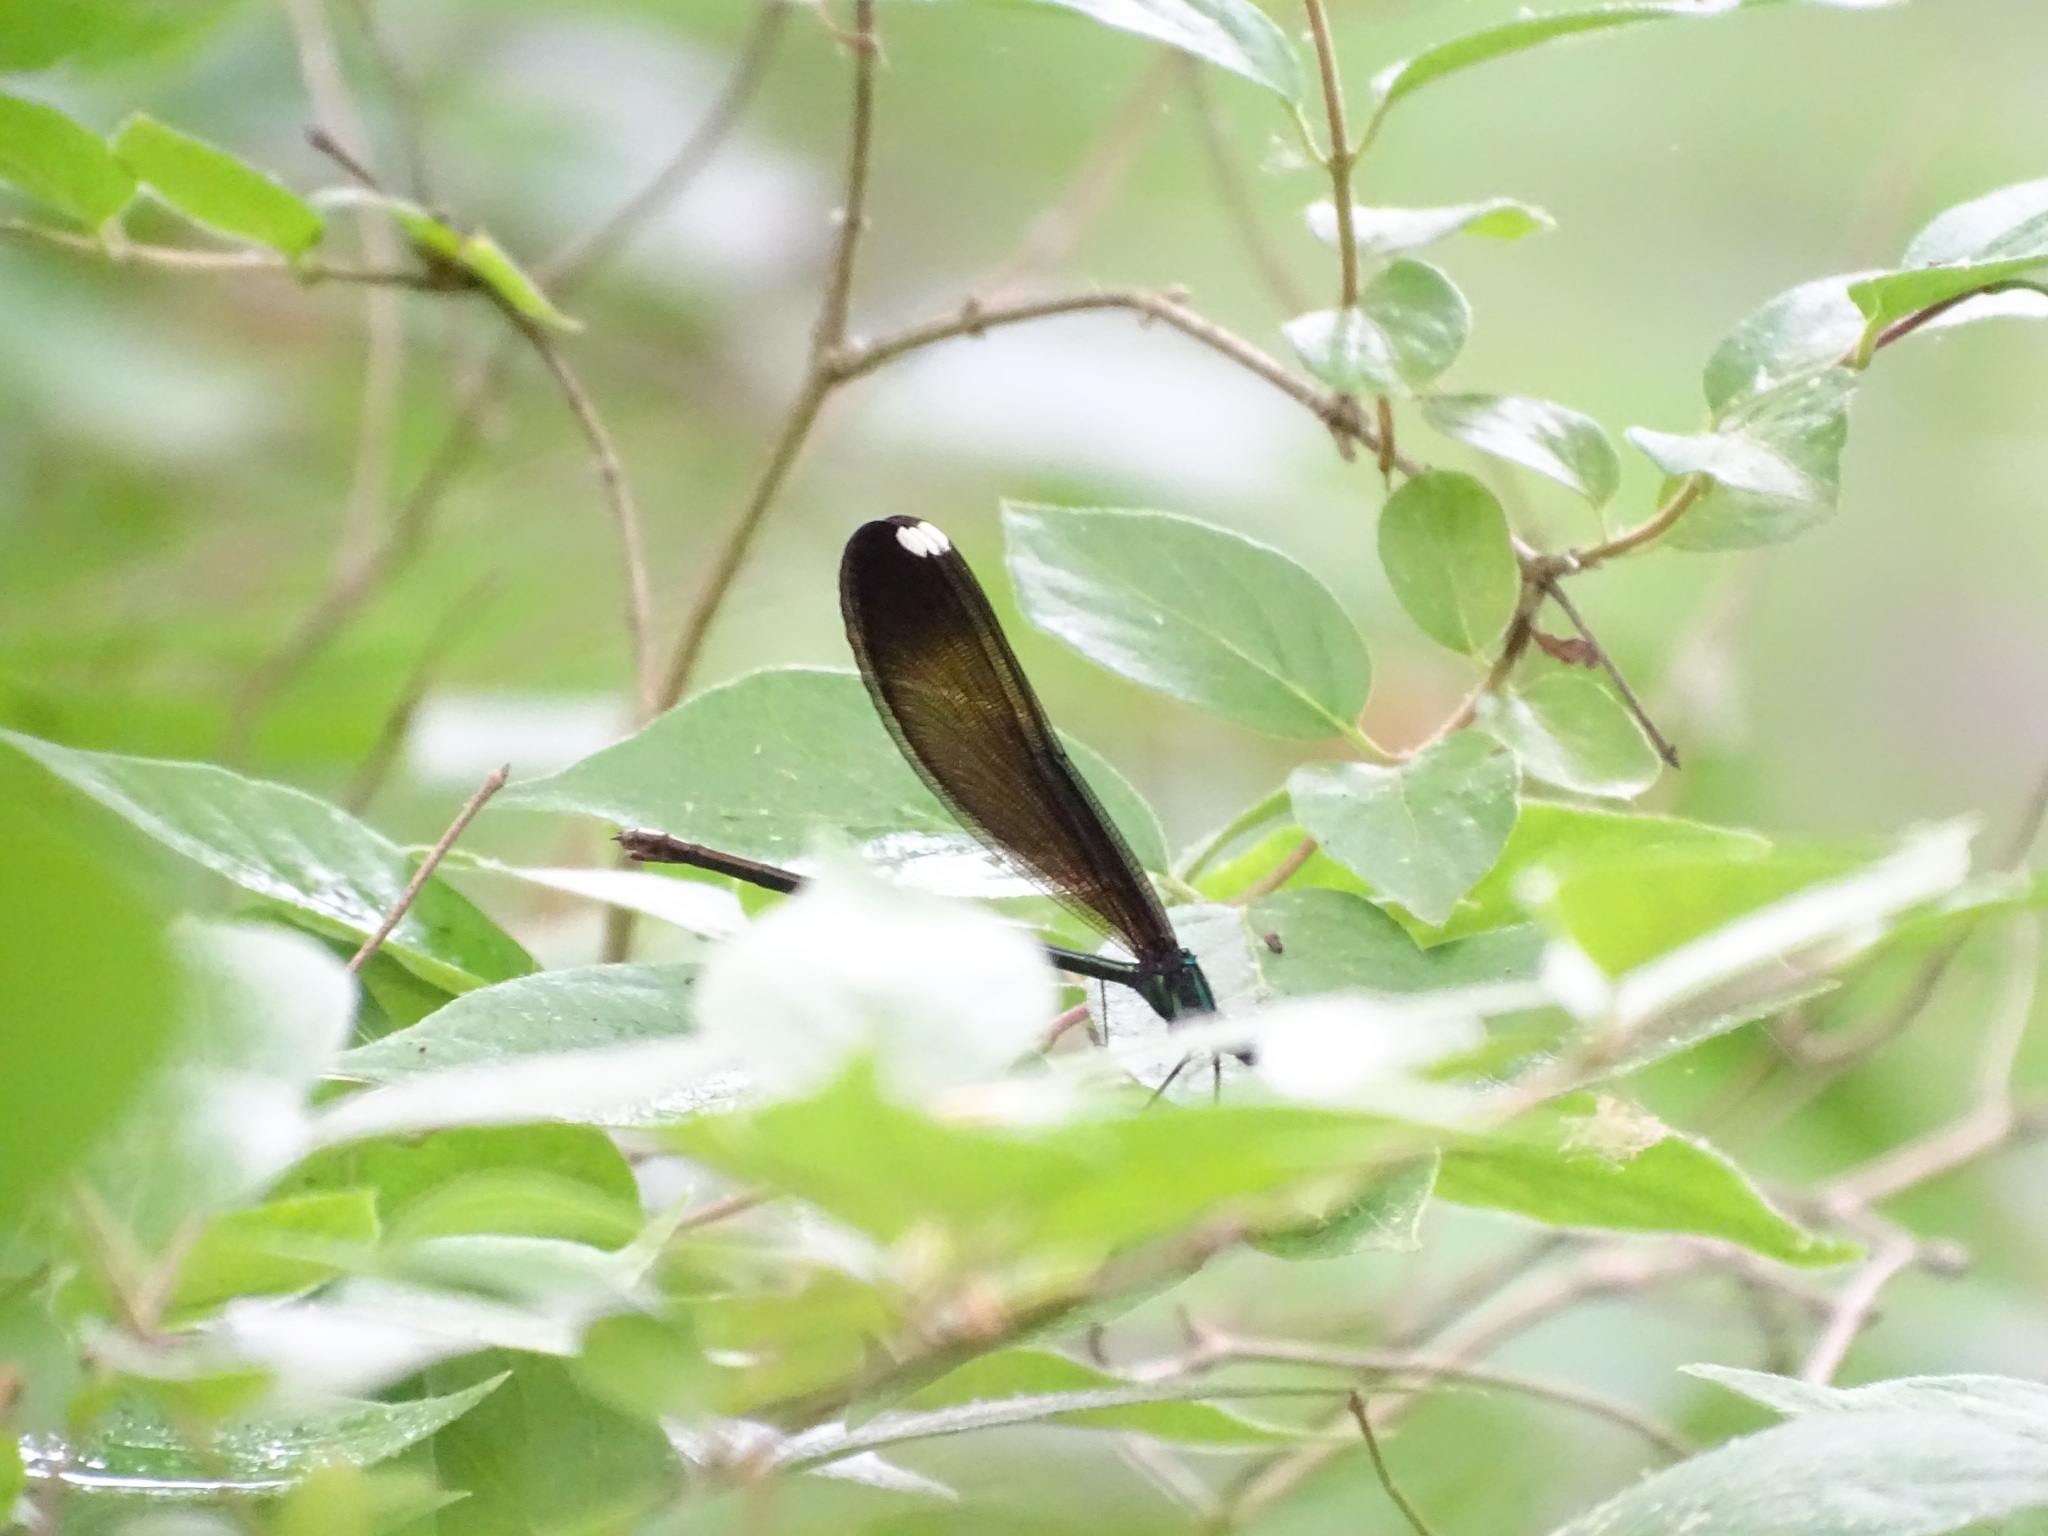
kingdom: Animalia
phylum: Arthropoda
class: Insecta
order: Odonata
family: Calopterygidae
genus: Calopteryx
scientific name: Calopteryx maculata
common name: Ebony jewelwing
